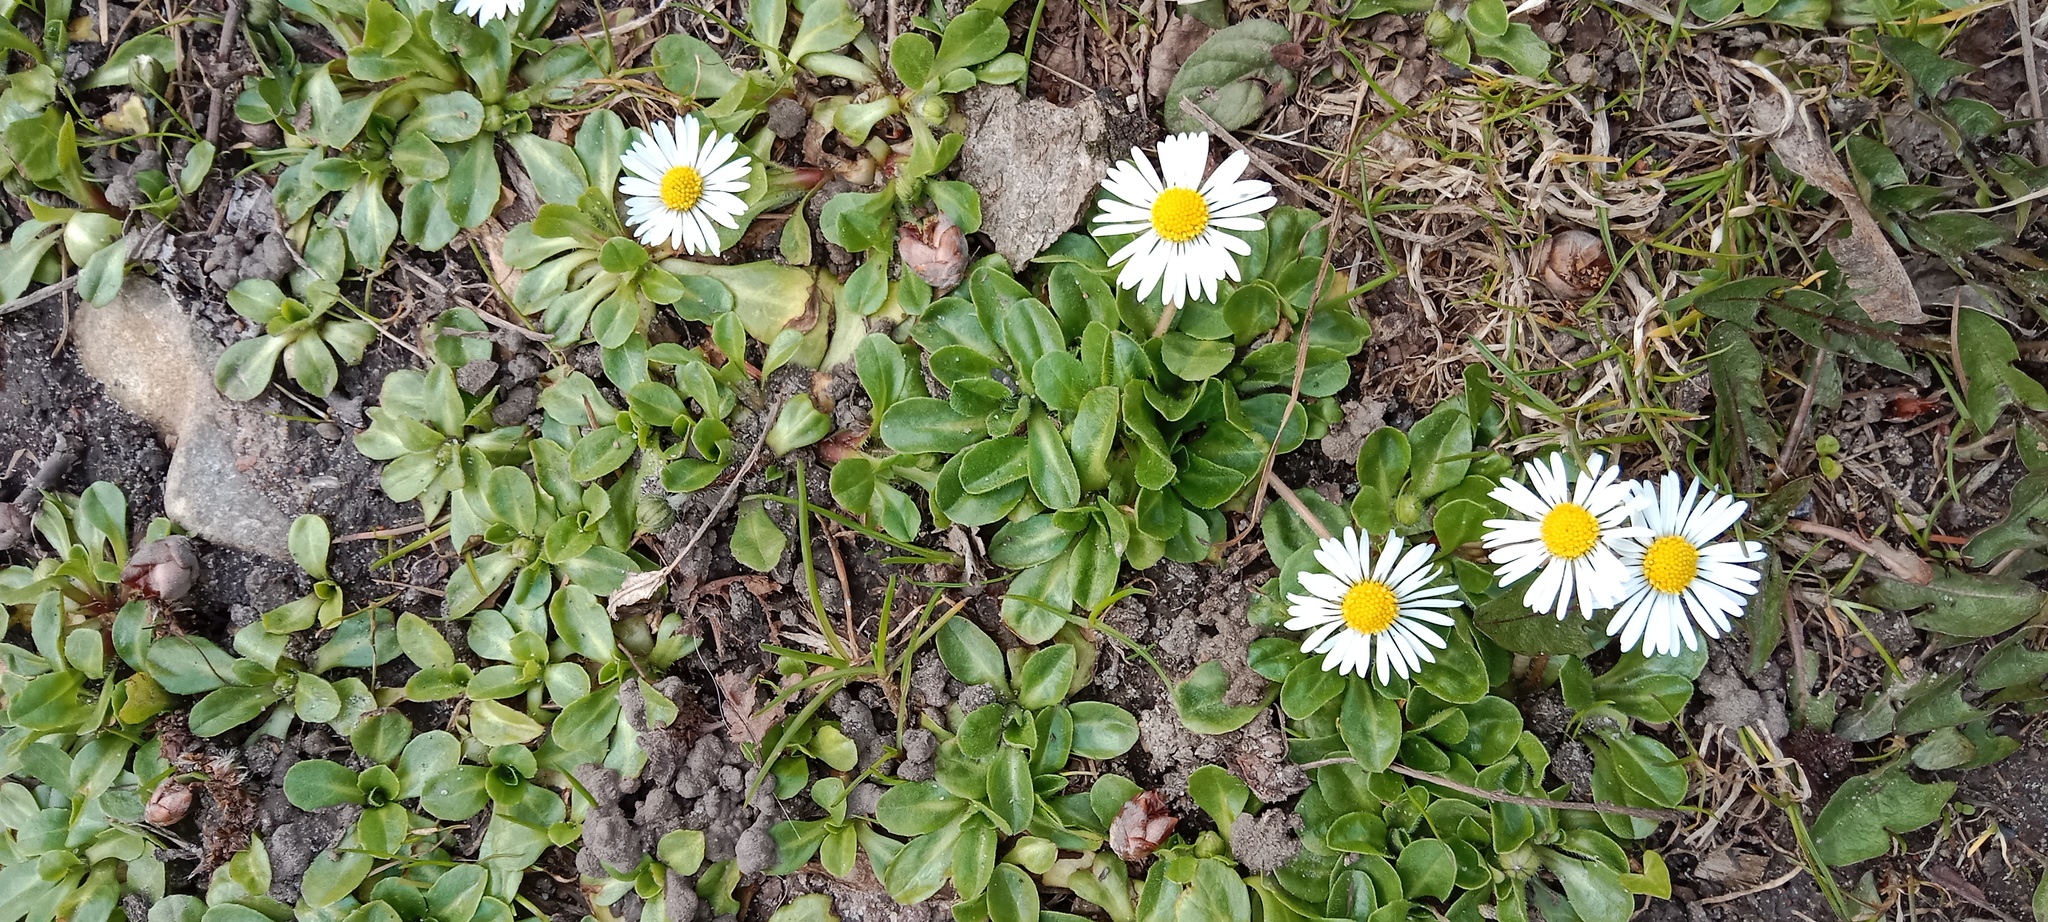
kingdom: Plantae
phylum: Tracheophyta
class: Magnoliopsida
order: Asterales
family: Asteraceae
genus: Bellis
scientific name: Bellis perennis
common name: Lawndaisy
